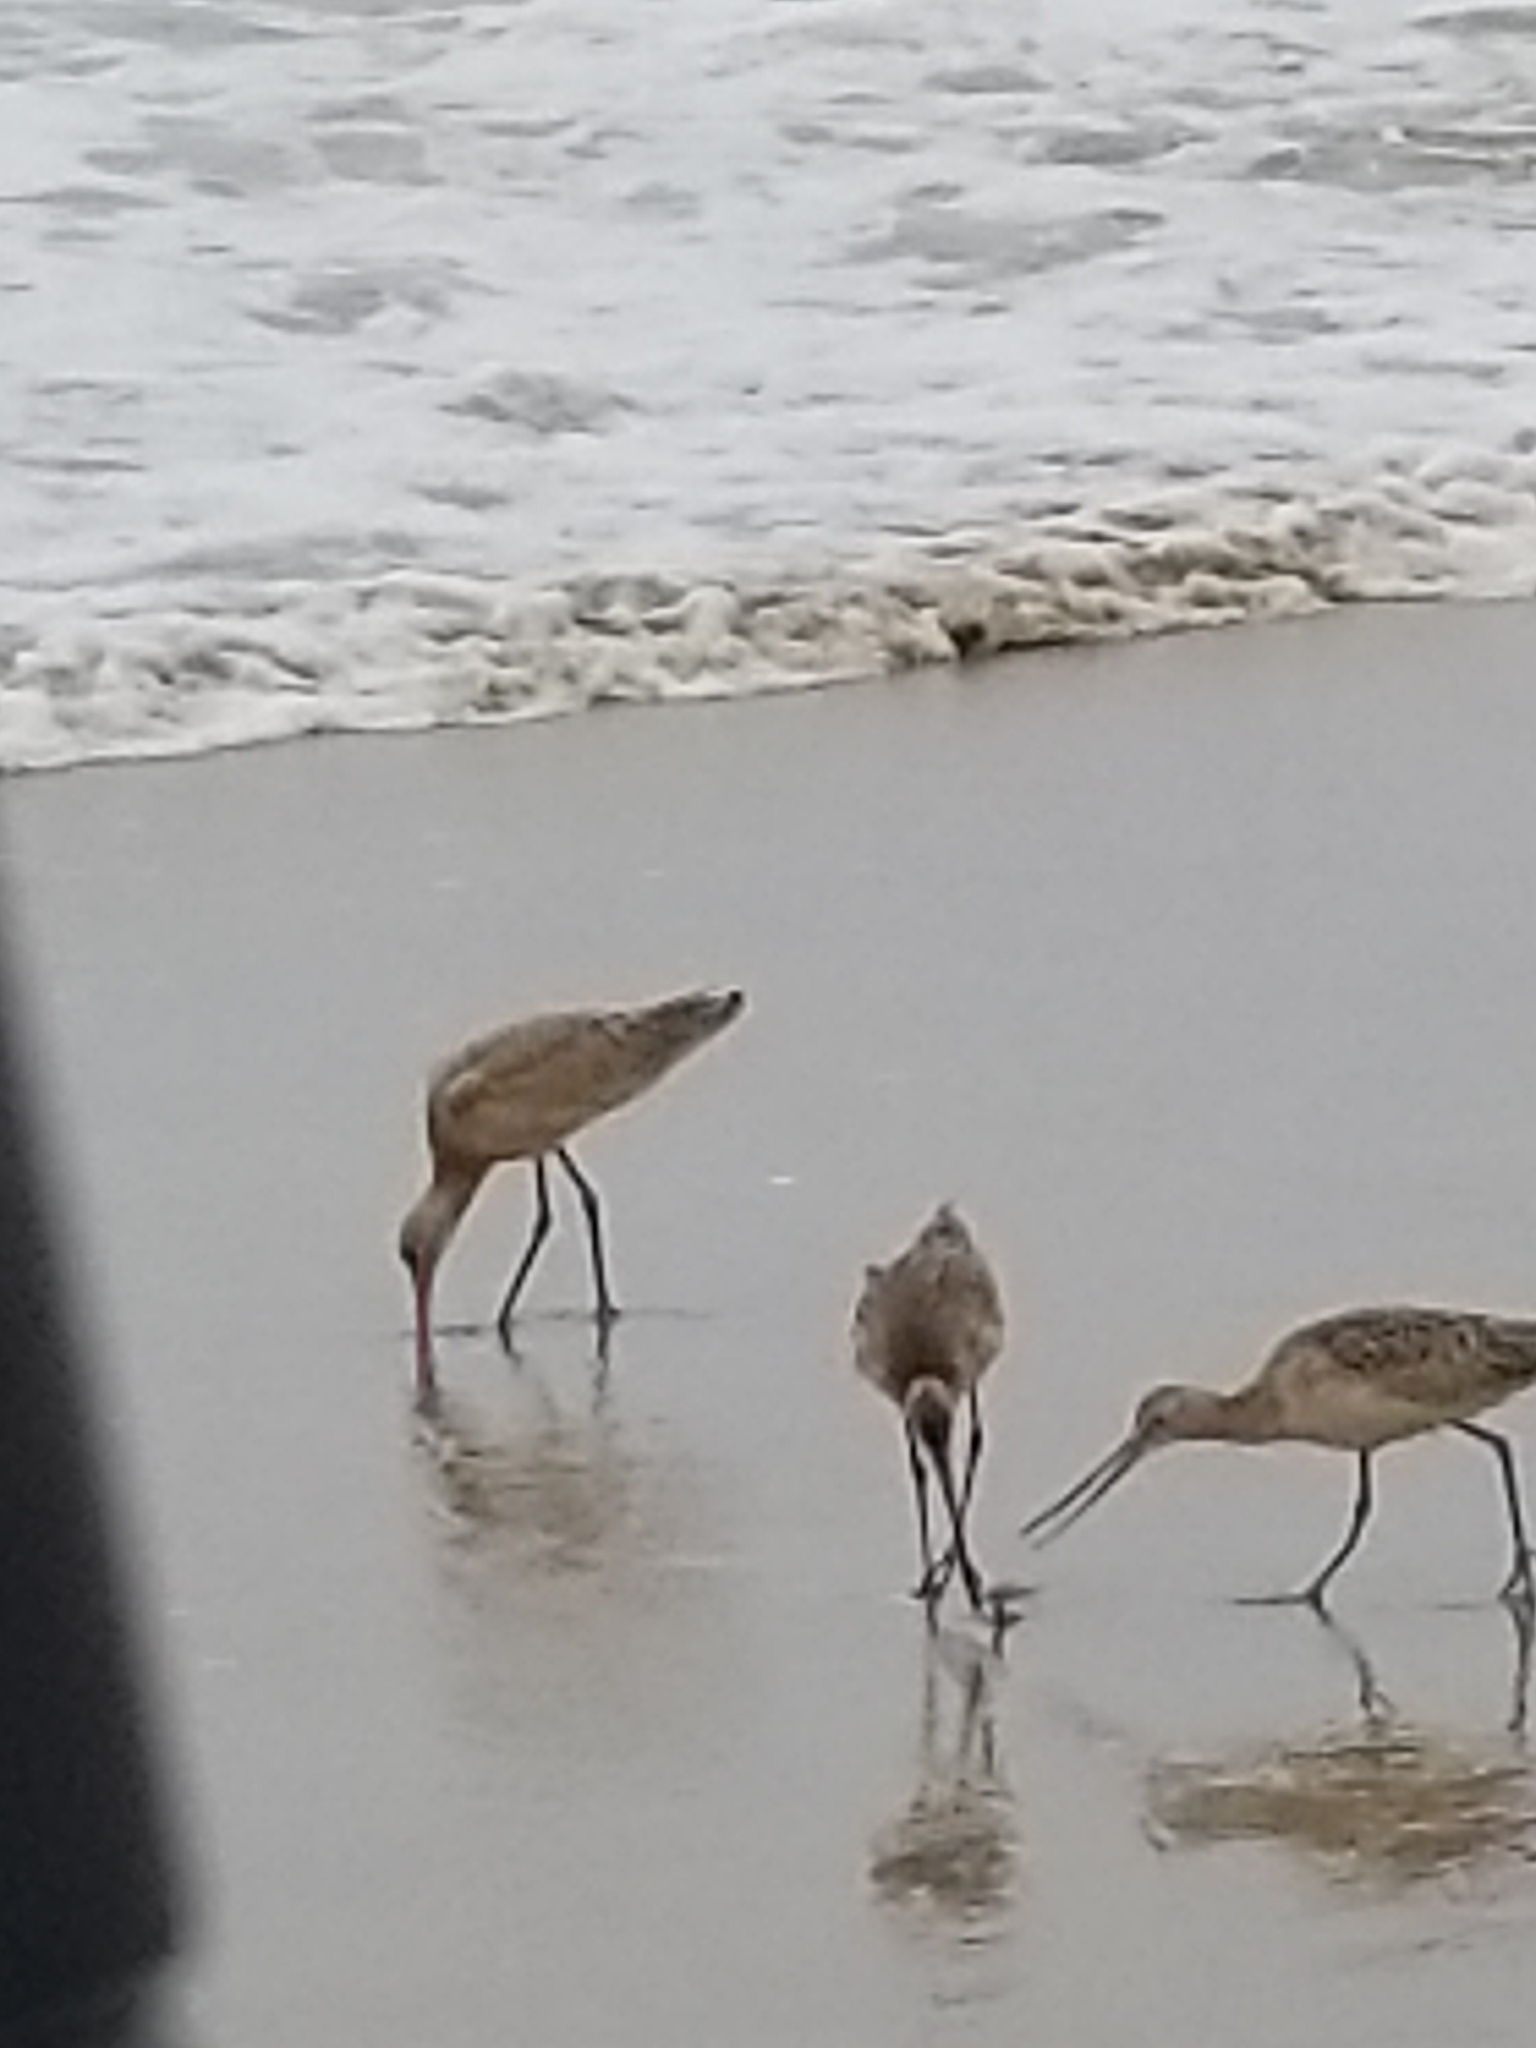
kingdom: Animalia
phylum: Chordata
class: Aves
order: Charadriiformes
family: Scolopacidae
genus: Limosa
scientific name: Limosa fedoa
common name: Marbled godwit
